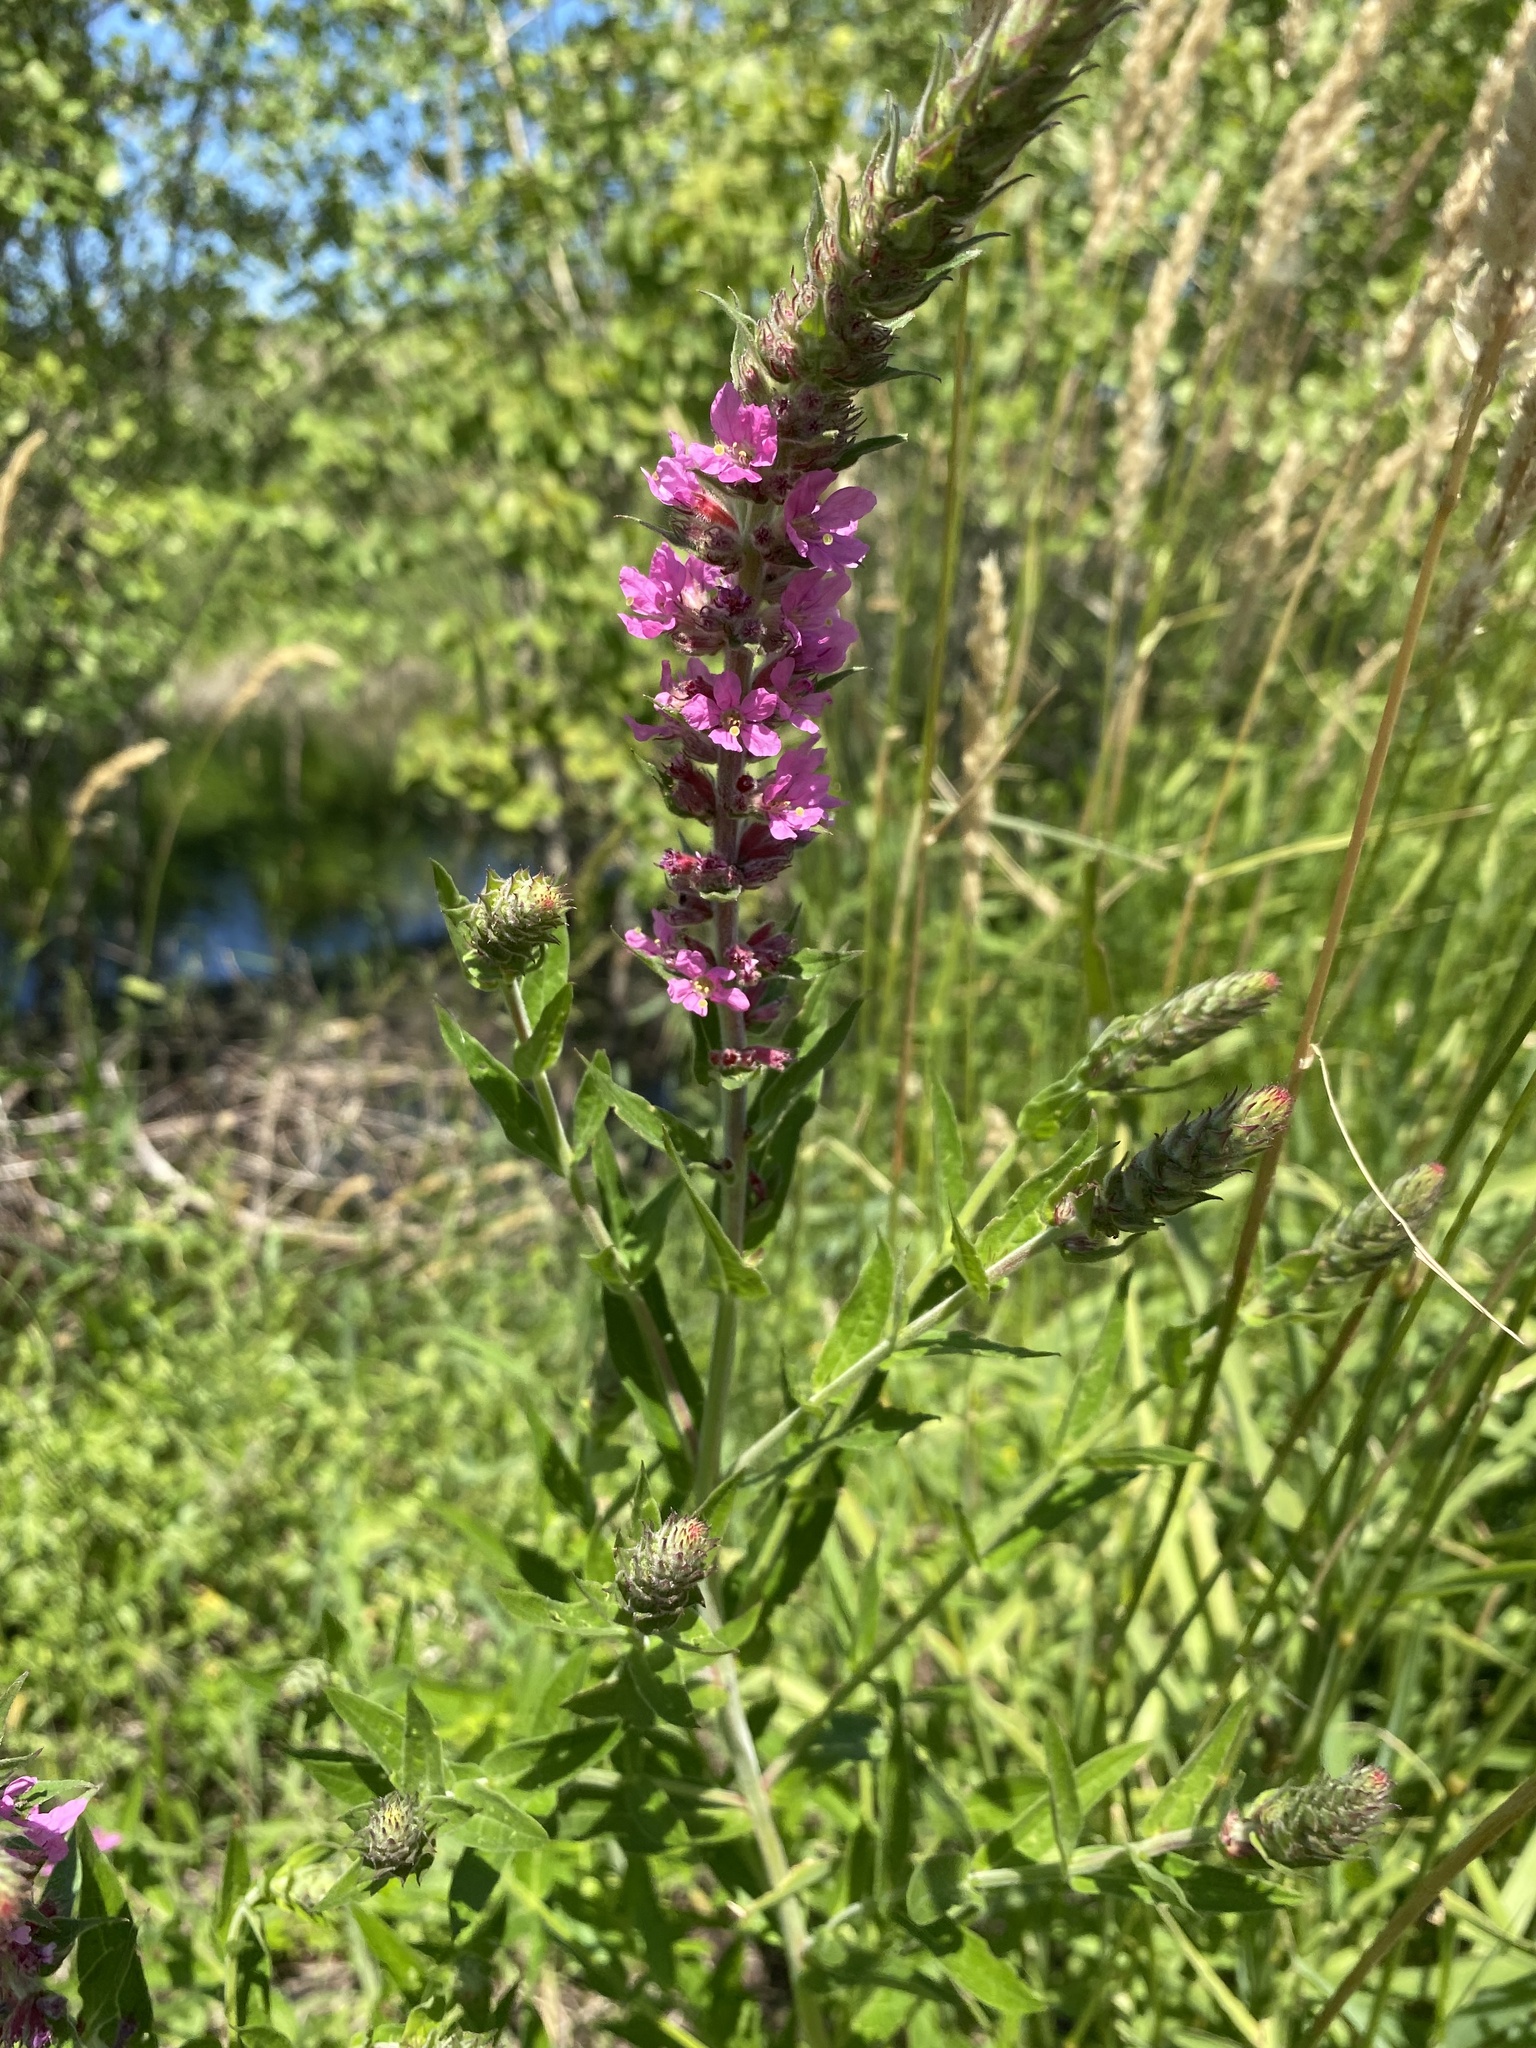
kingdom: Plantae
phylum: Tracheophyta
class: Magnoliopsida
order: Myrtales
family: Lythraceae
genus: Lythrum
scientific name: Lythrum salicaria
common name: Purple loosestrife
